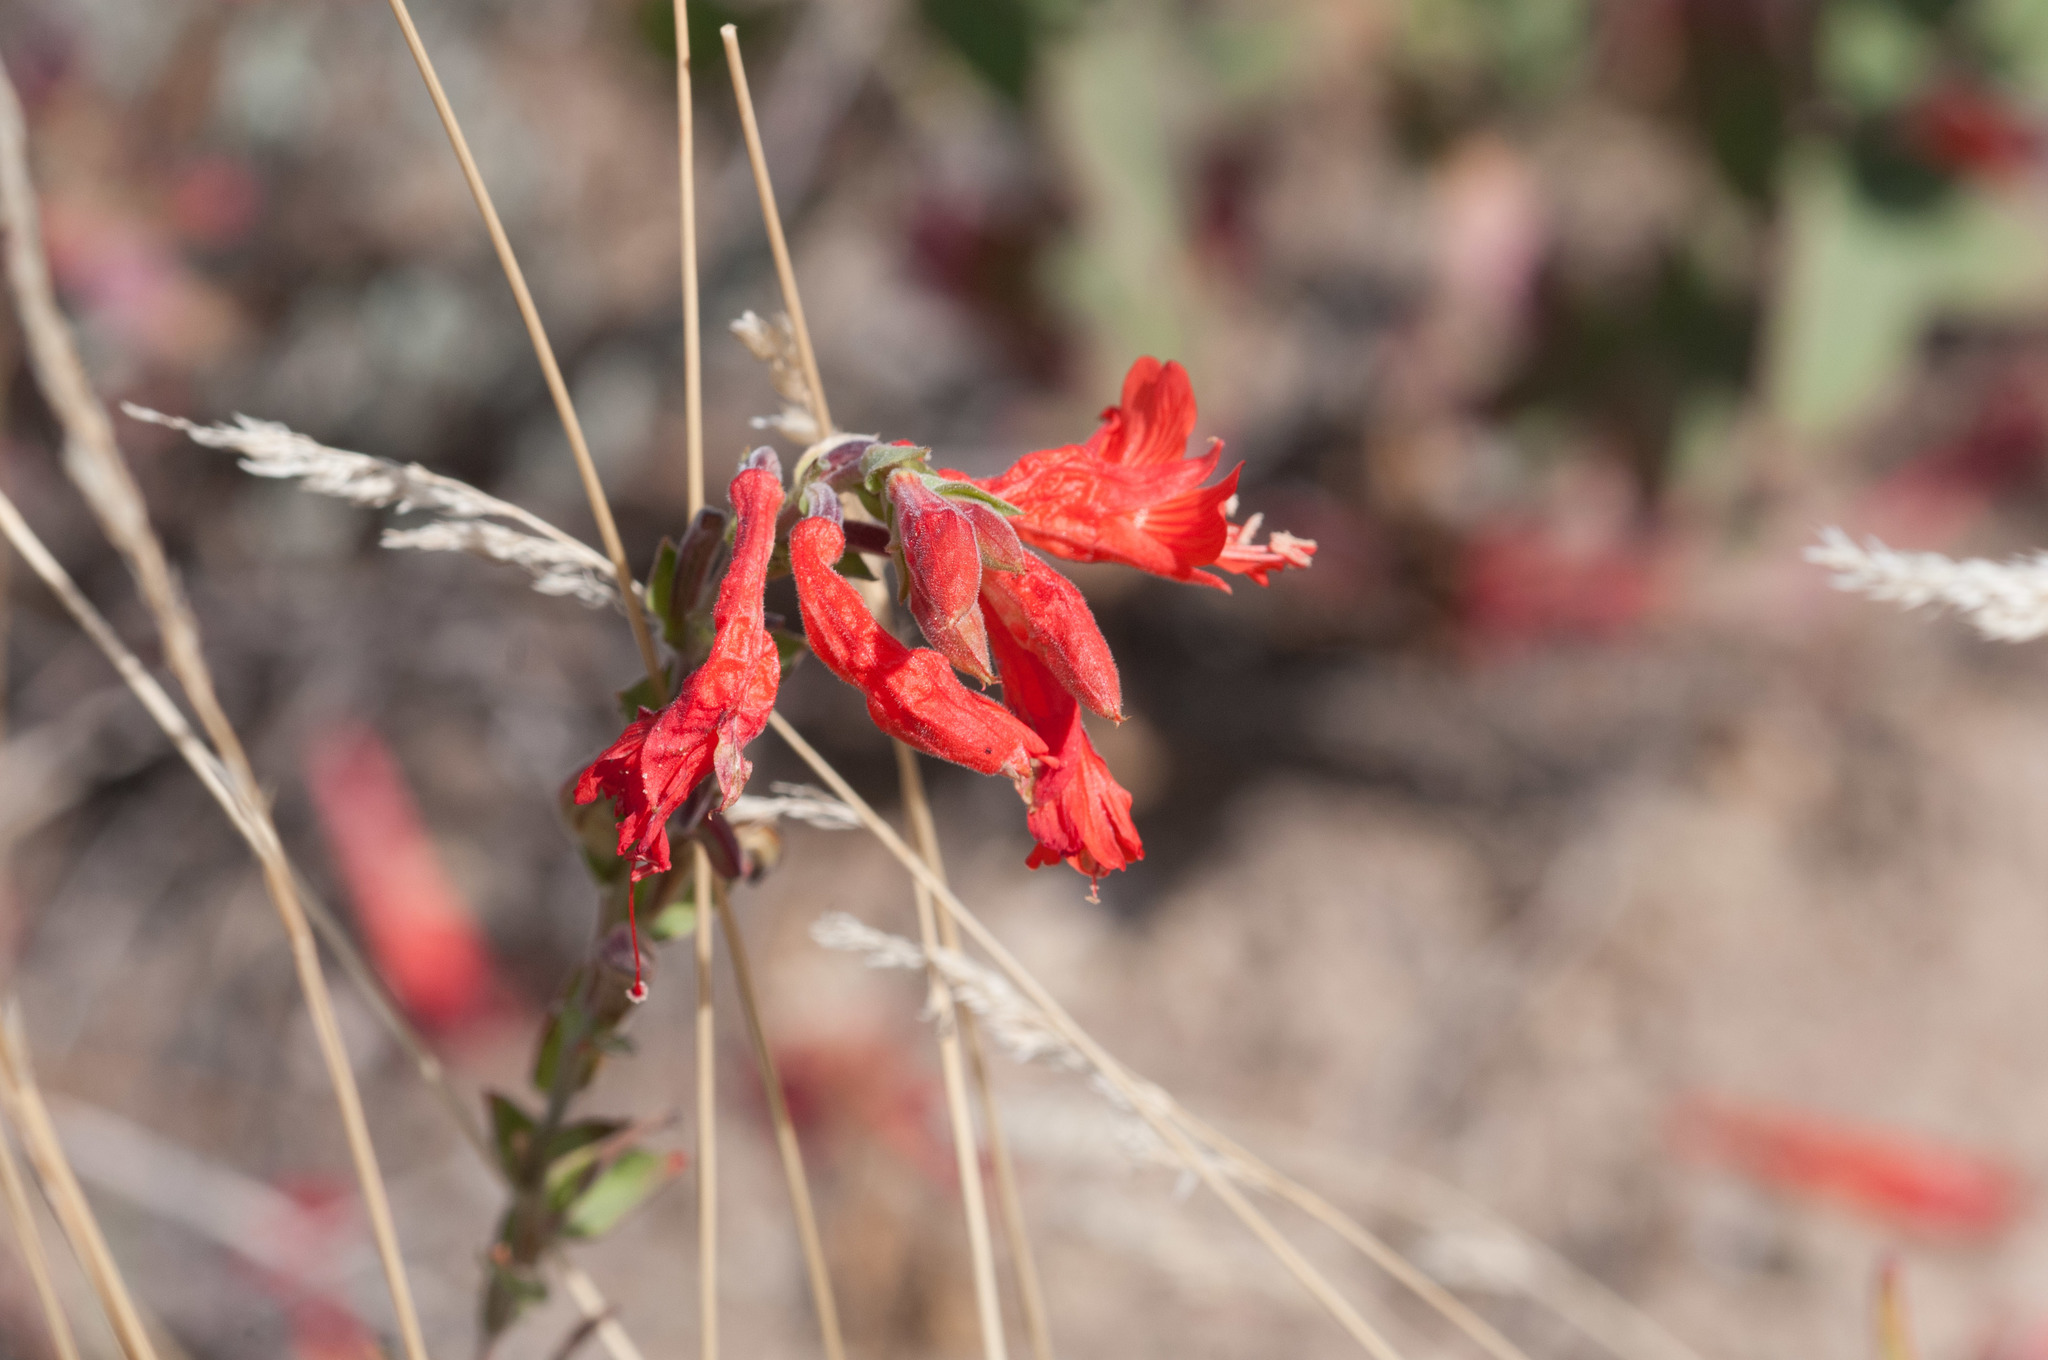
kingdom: Plantae
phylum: Tracheophyta
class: Magnoliopsida
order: Myrtales
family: Onagraceae
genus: Epilobium
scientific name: Epilobium canum
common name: California-fuchsia
